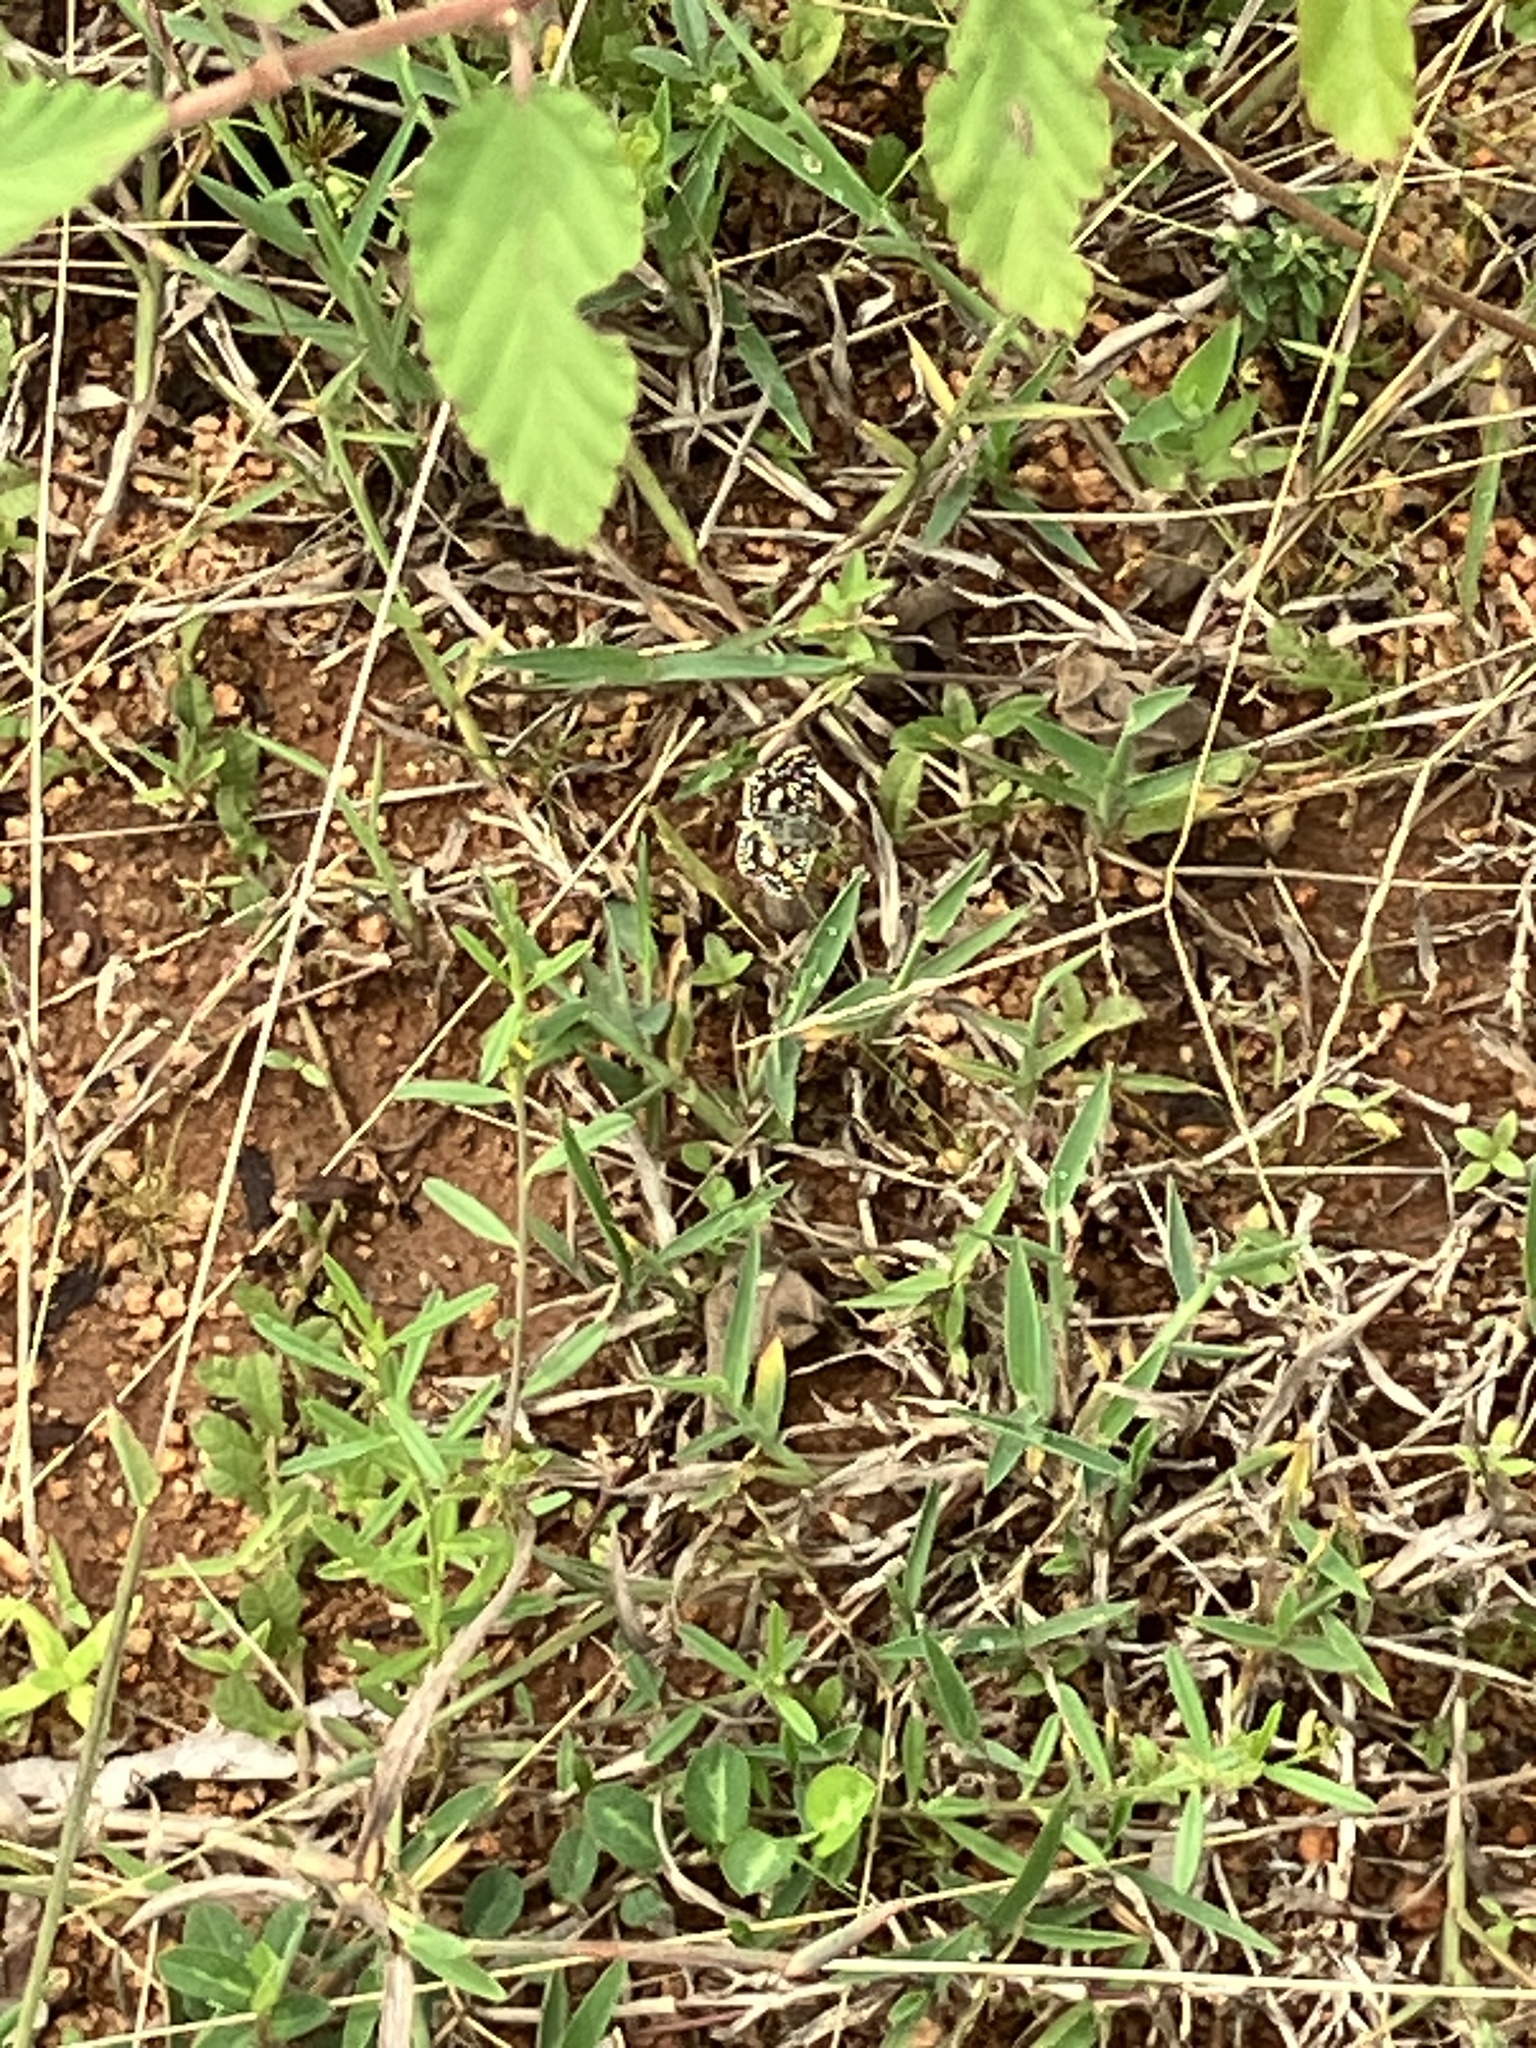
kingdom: Animalia
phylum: Arthropoda
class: Insecta
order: Lepidoptera
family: Hesperiidae
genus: Spialia
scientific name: Spialia galba
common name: Indian skipper
